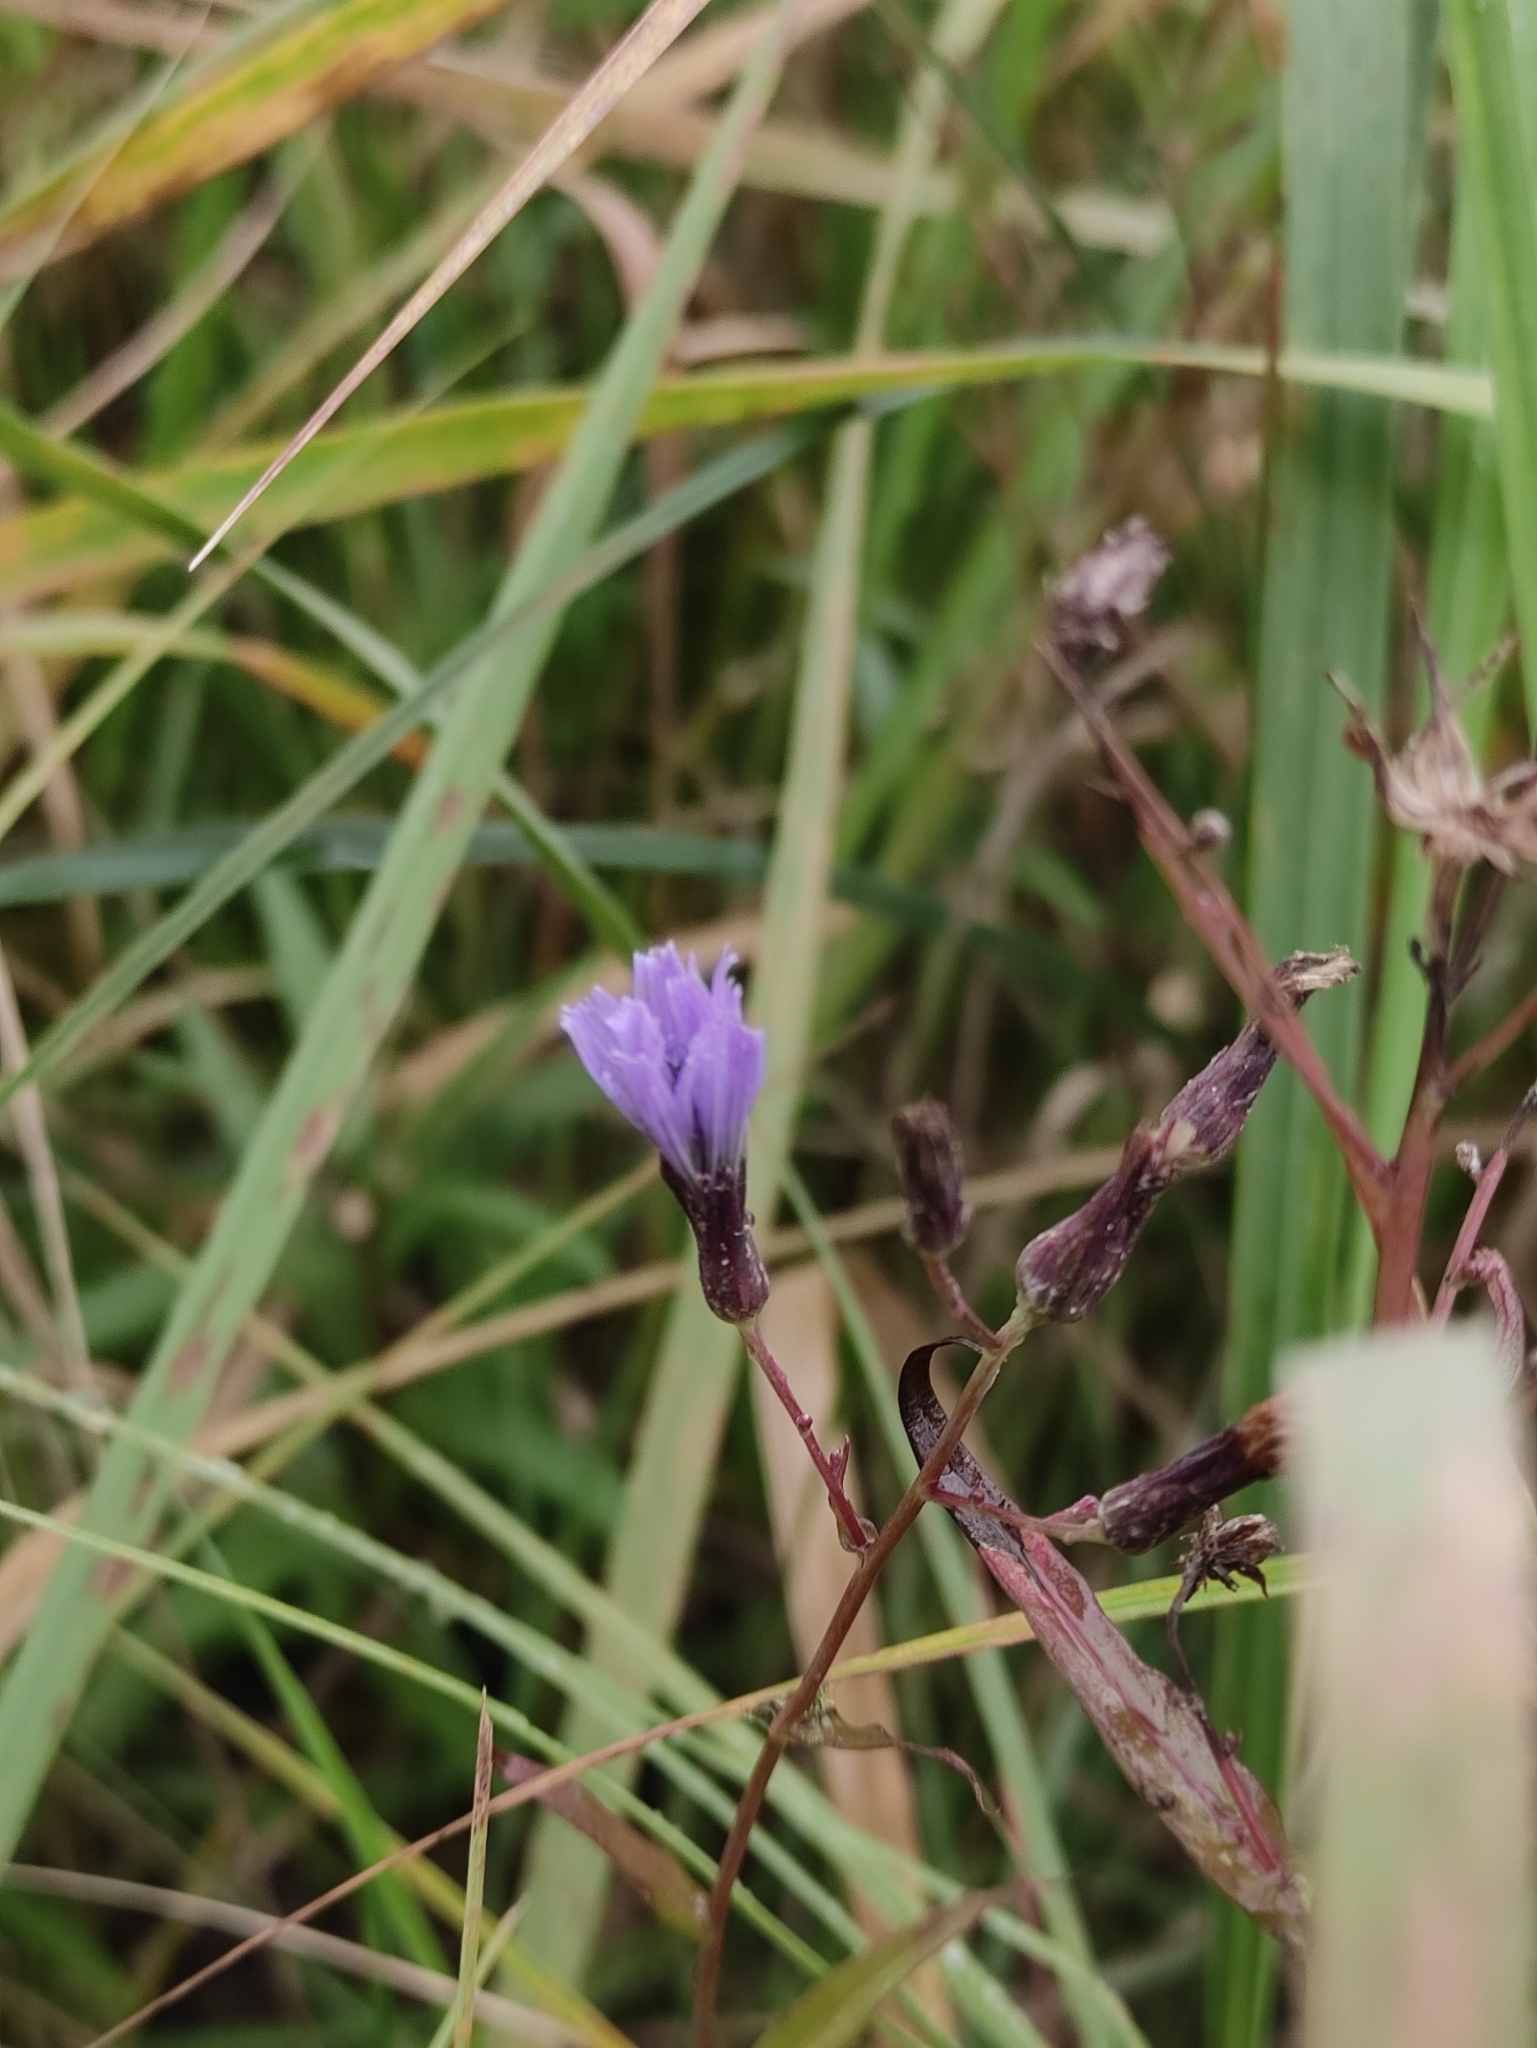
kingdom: Plantae
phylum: Tracheophyta
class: Magnoliopsida
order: Asterales
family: Asteraceae
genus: Lactuca
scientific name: Lactuca sibirica
